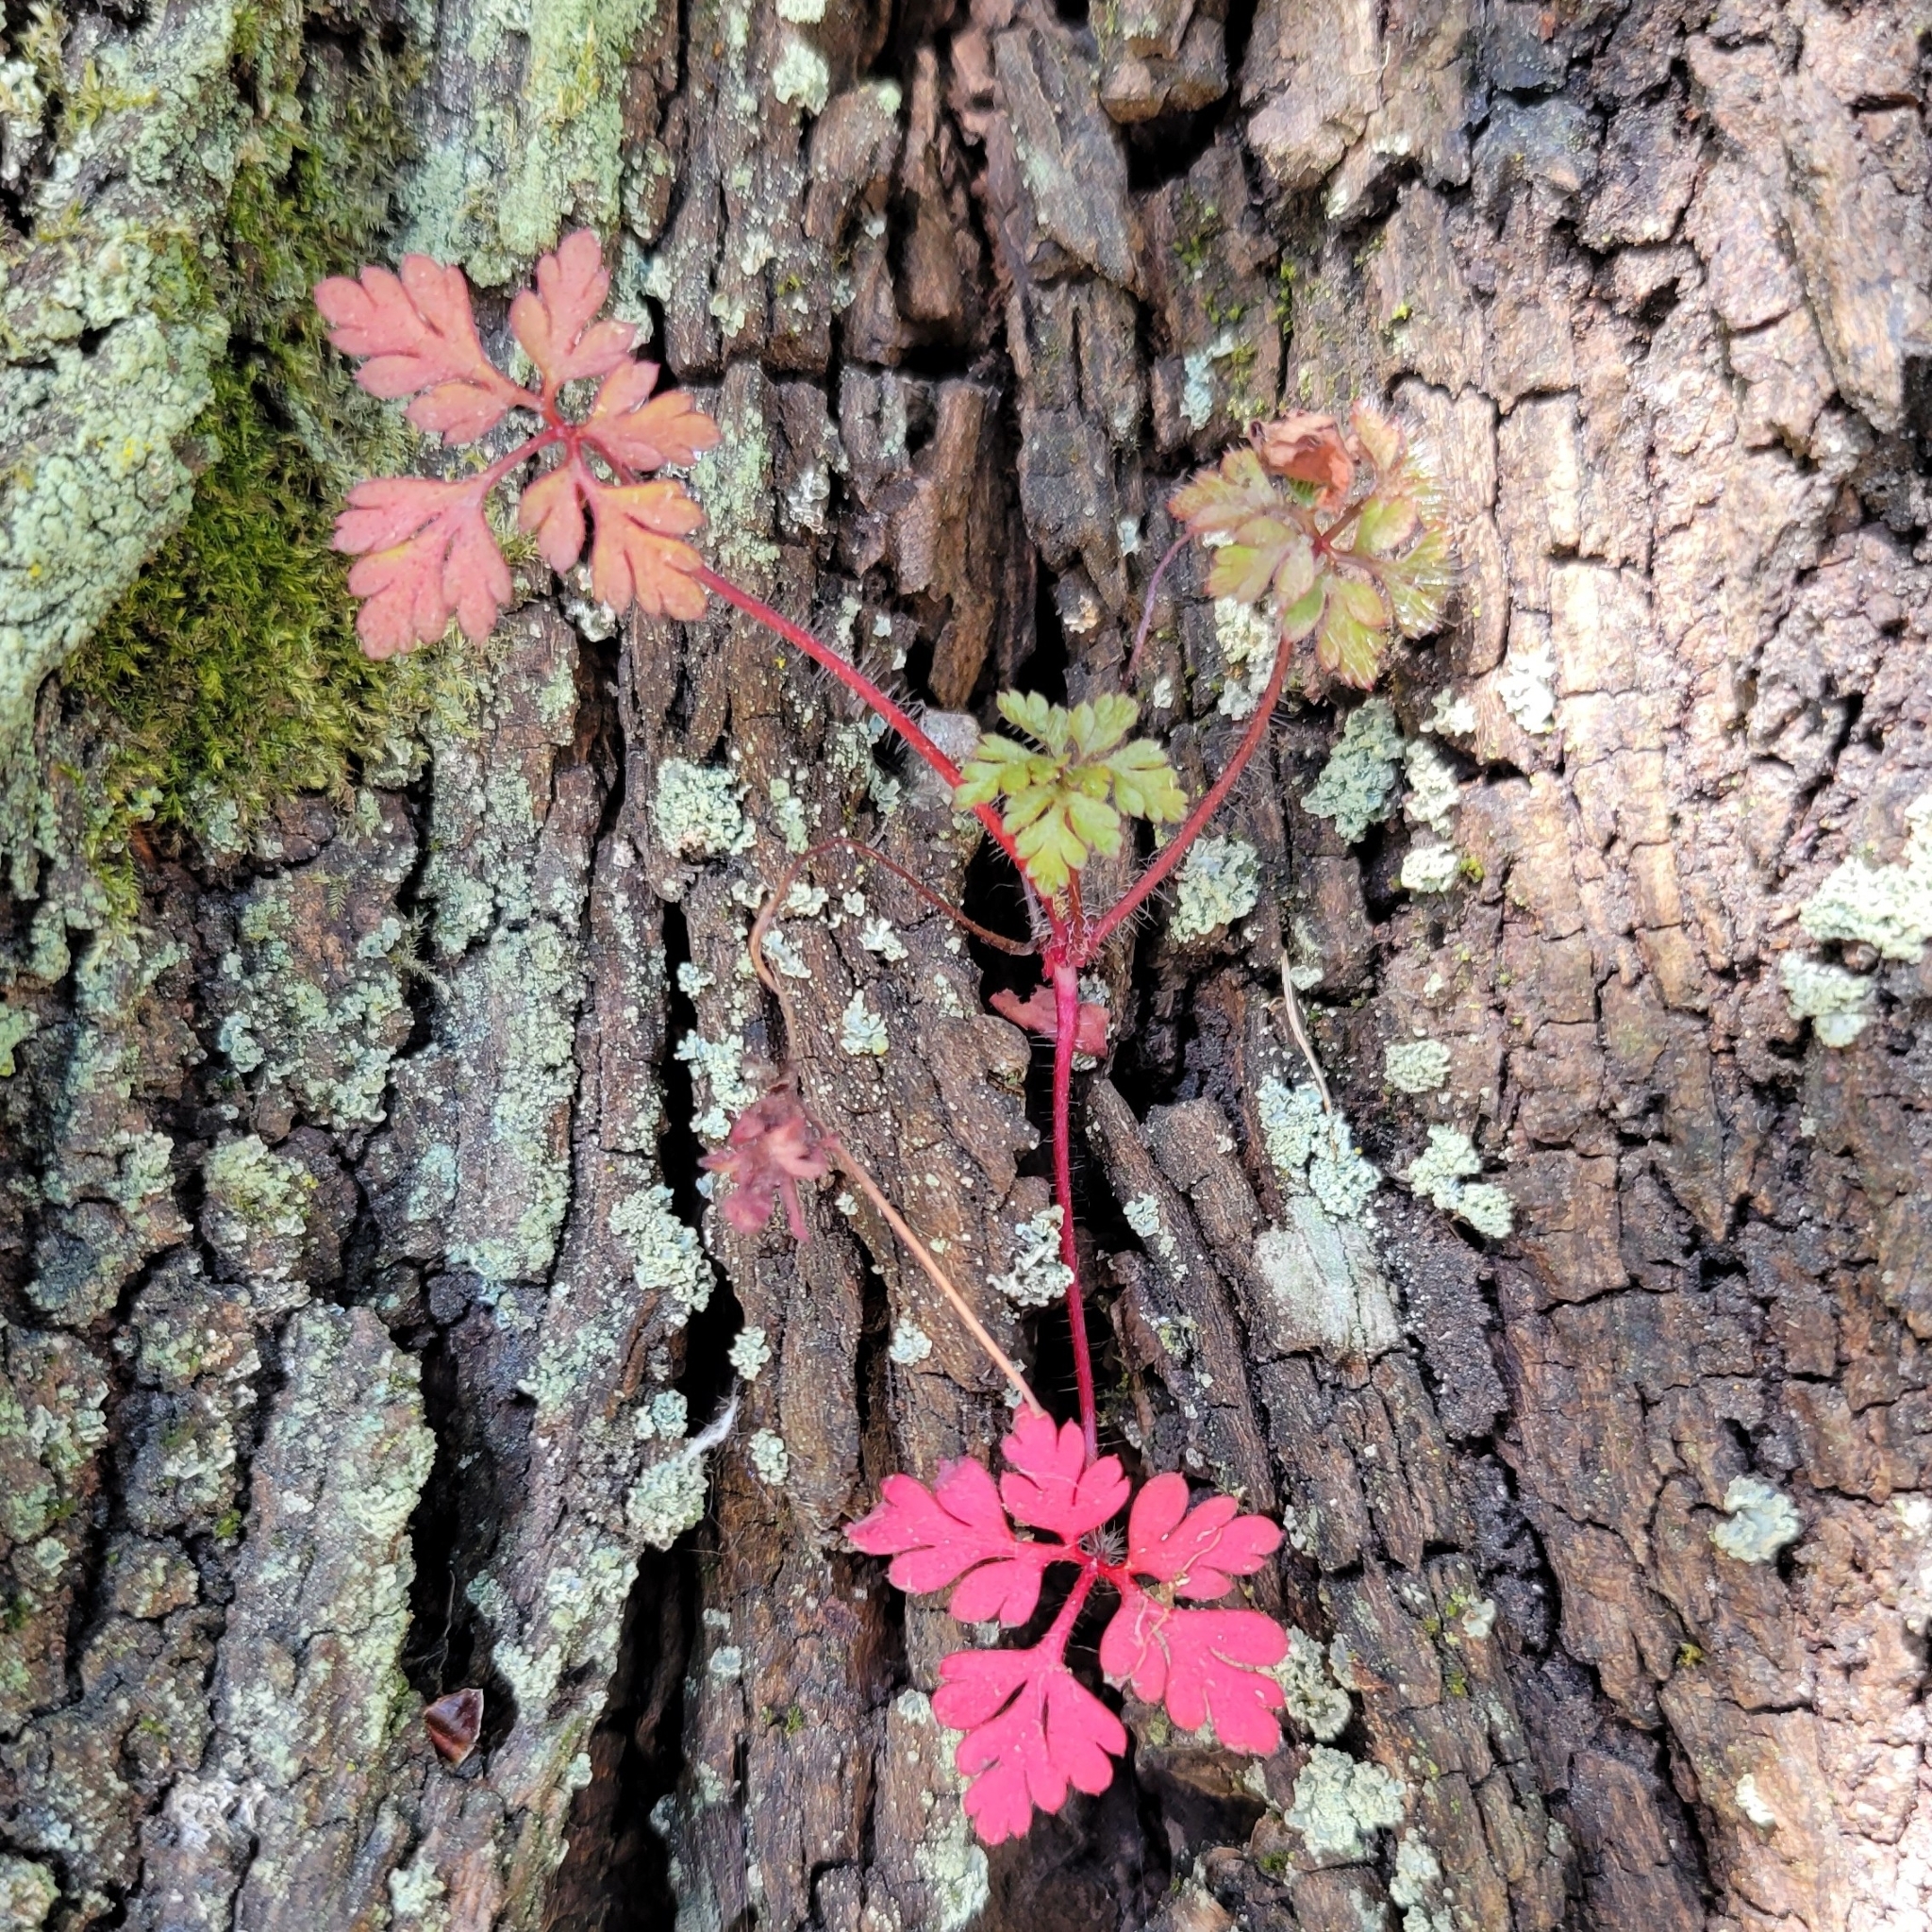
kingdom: Plantae
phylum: Tracheophyta
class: Magnoliopsida
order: Geraniales
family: Geraniaceae
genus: Geranium
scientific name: Geranium robertianum
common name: Herb-robert
